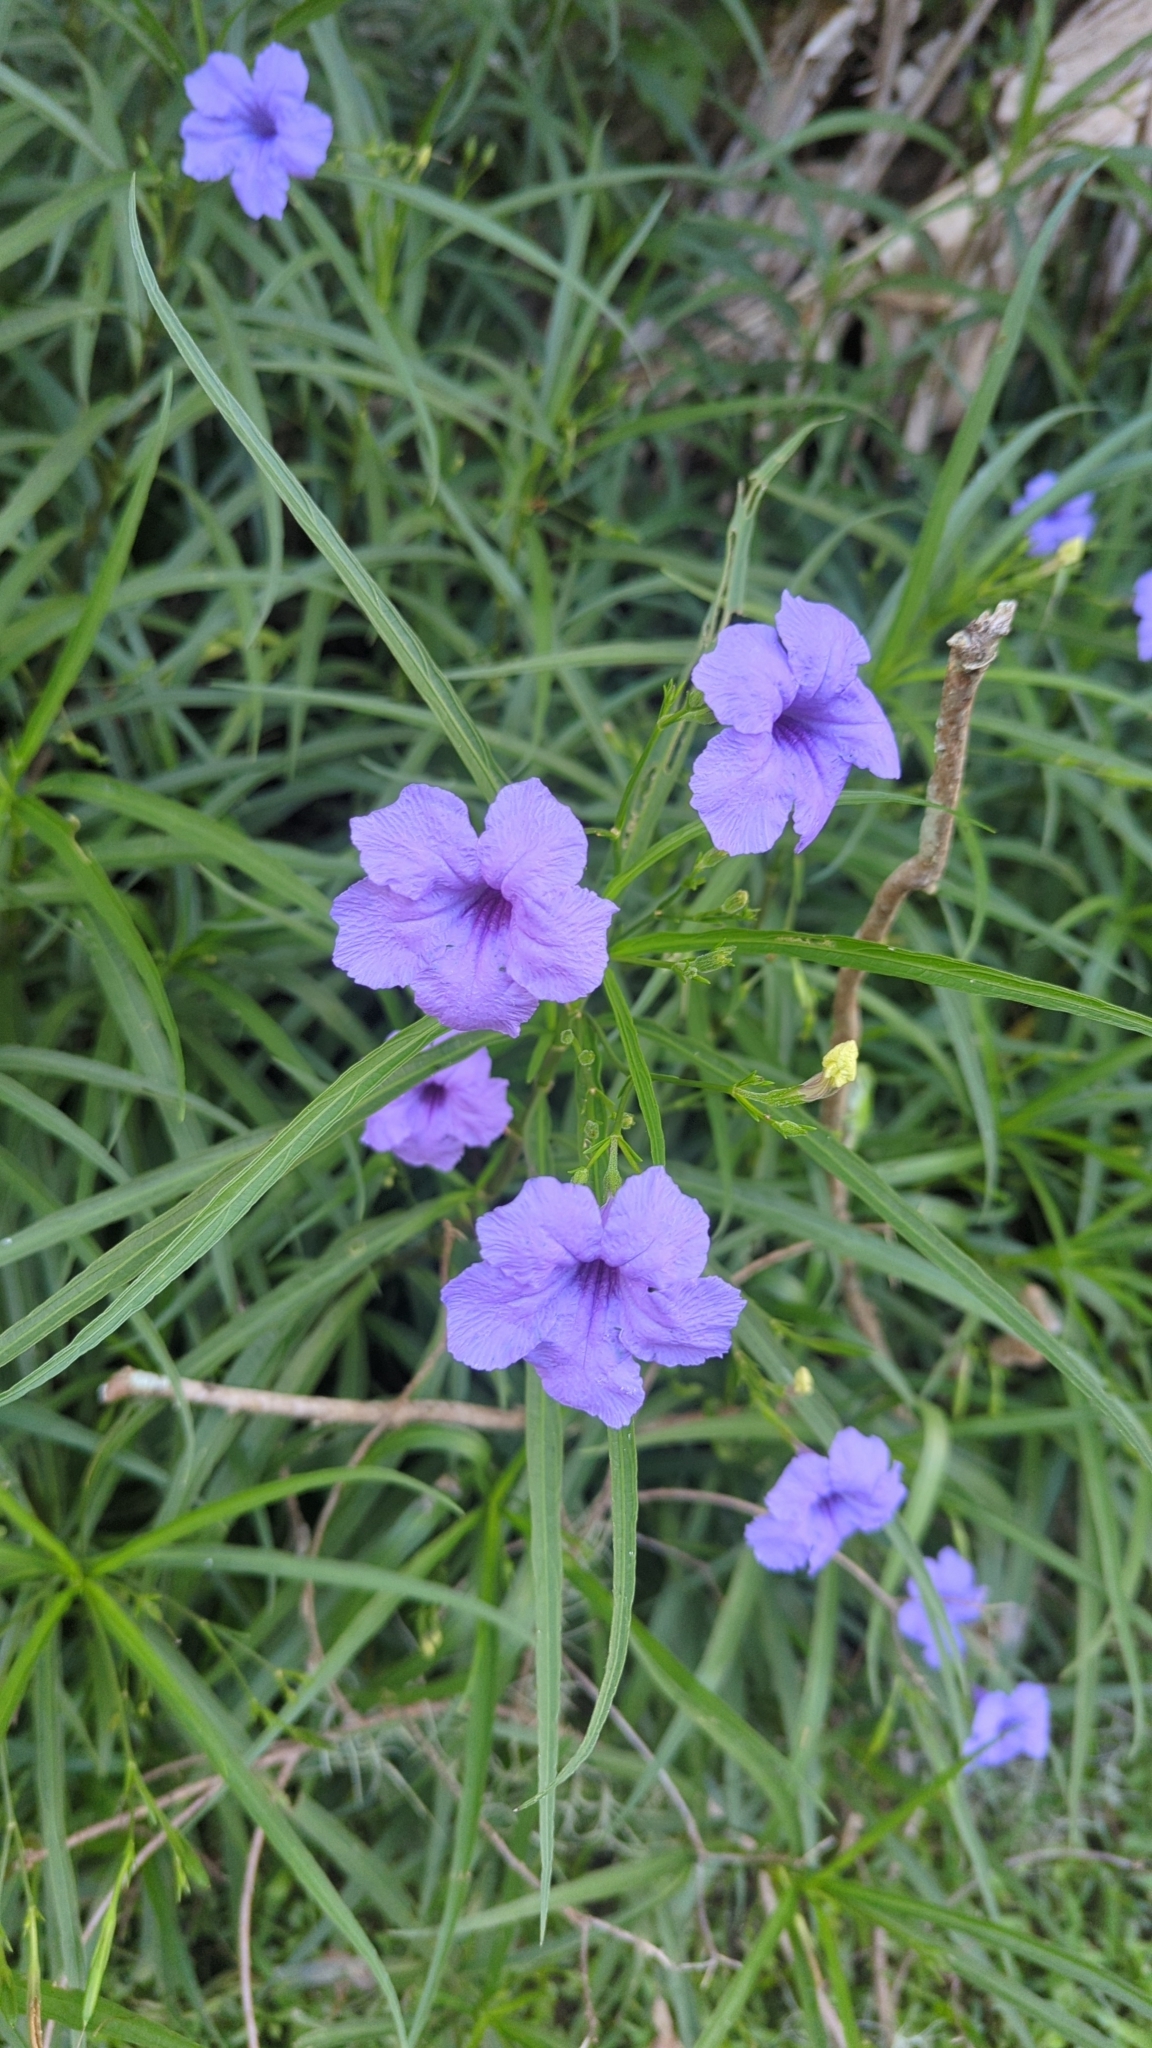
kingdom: Plantae
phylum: Tracheophyta
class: Magnoliopsida
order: Lamiales
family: Acanthaceae
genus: Ruellia
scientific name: Ruellia simplex
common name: Softseed wild petunia
